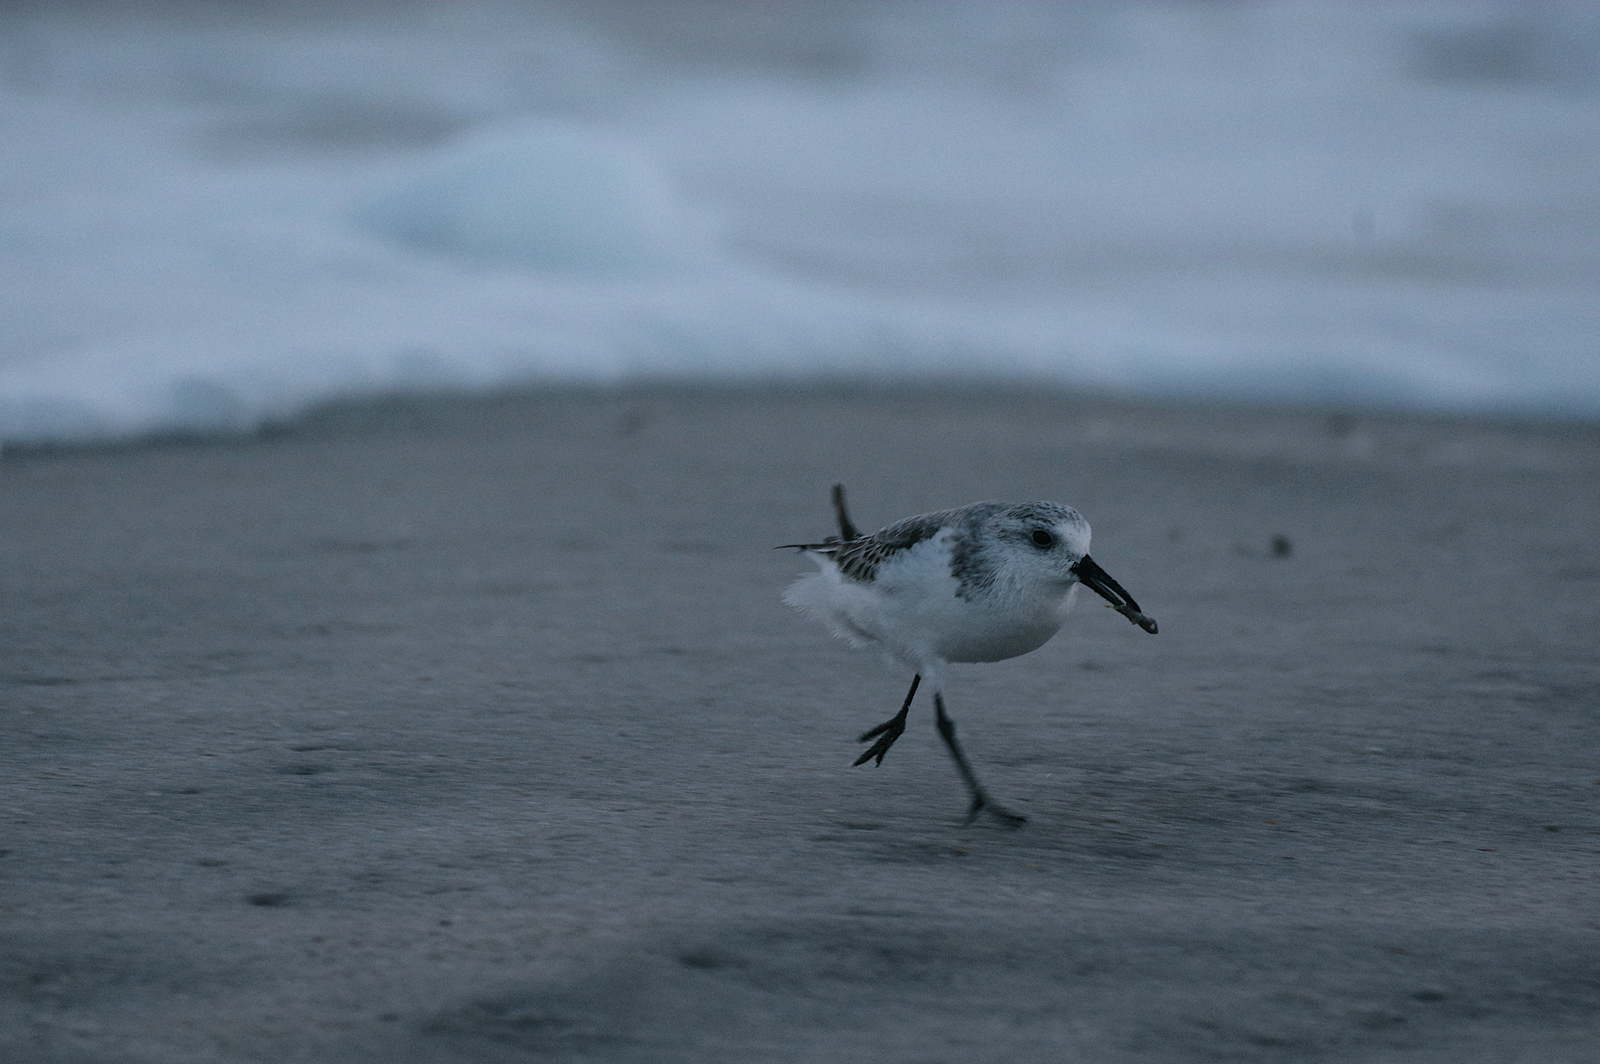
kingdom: Animalia
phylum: Chordata
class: Aves
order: Charadriiformes
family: Scolopacidae
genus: Calidris
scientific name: Calidris alba
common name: Sanderling
